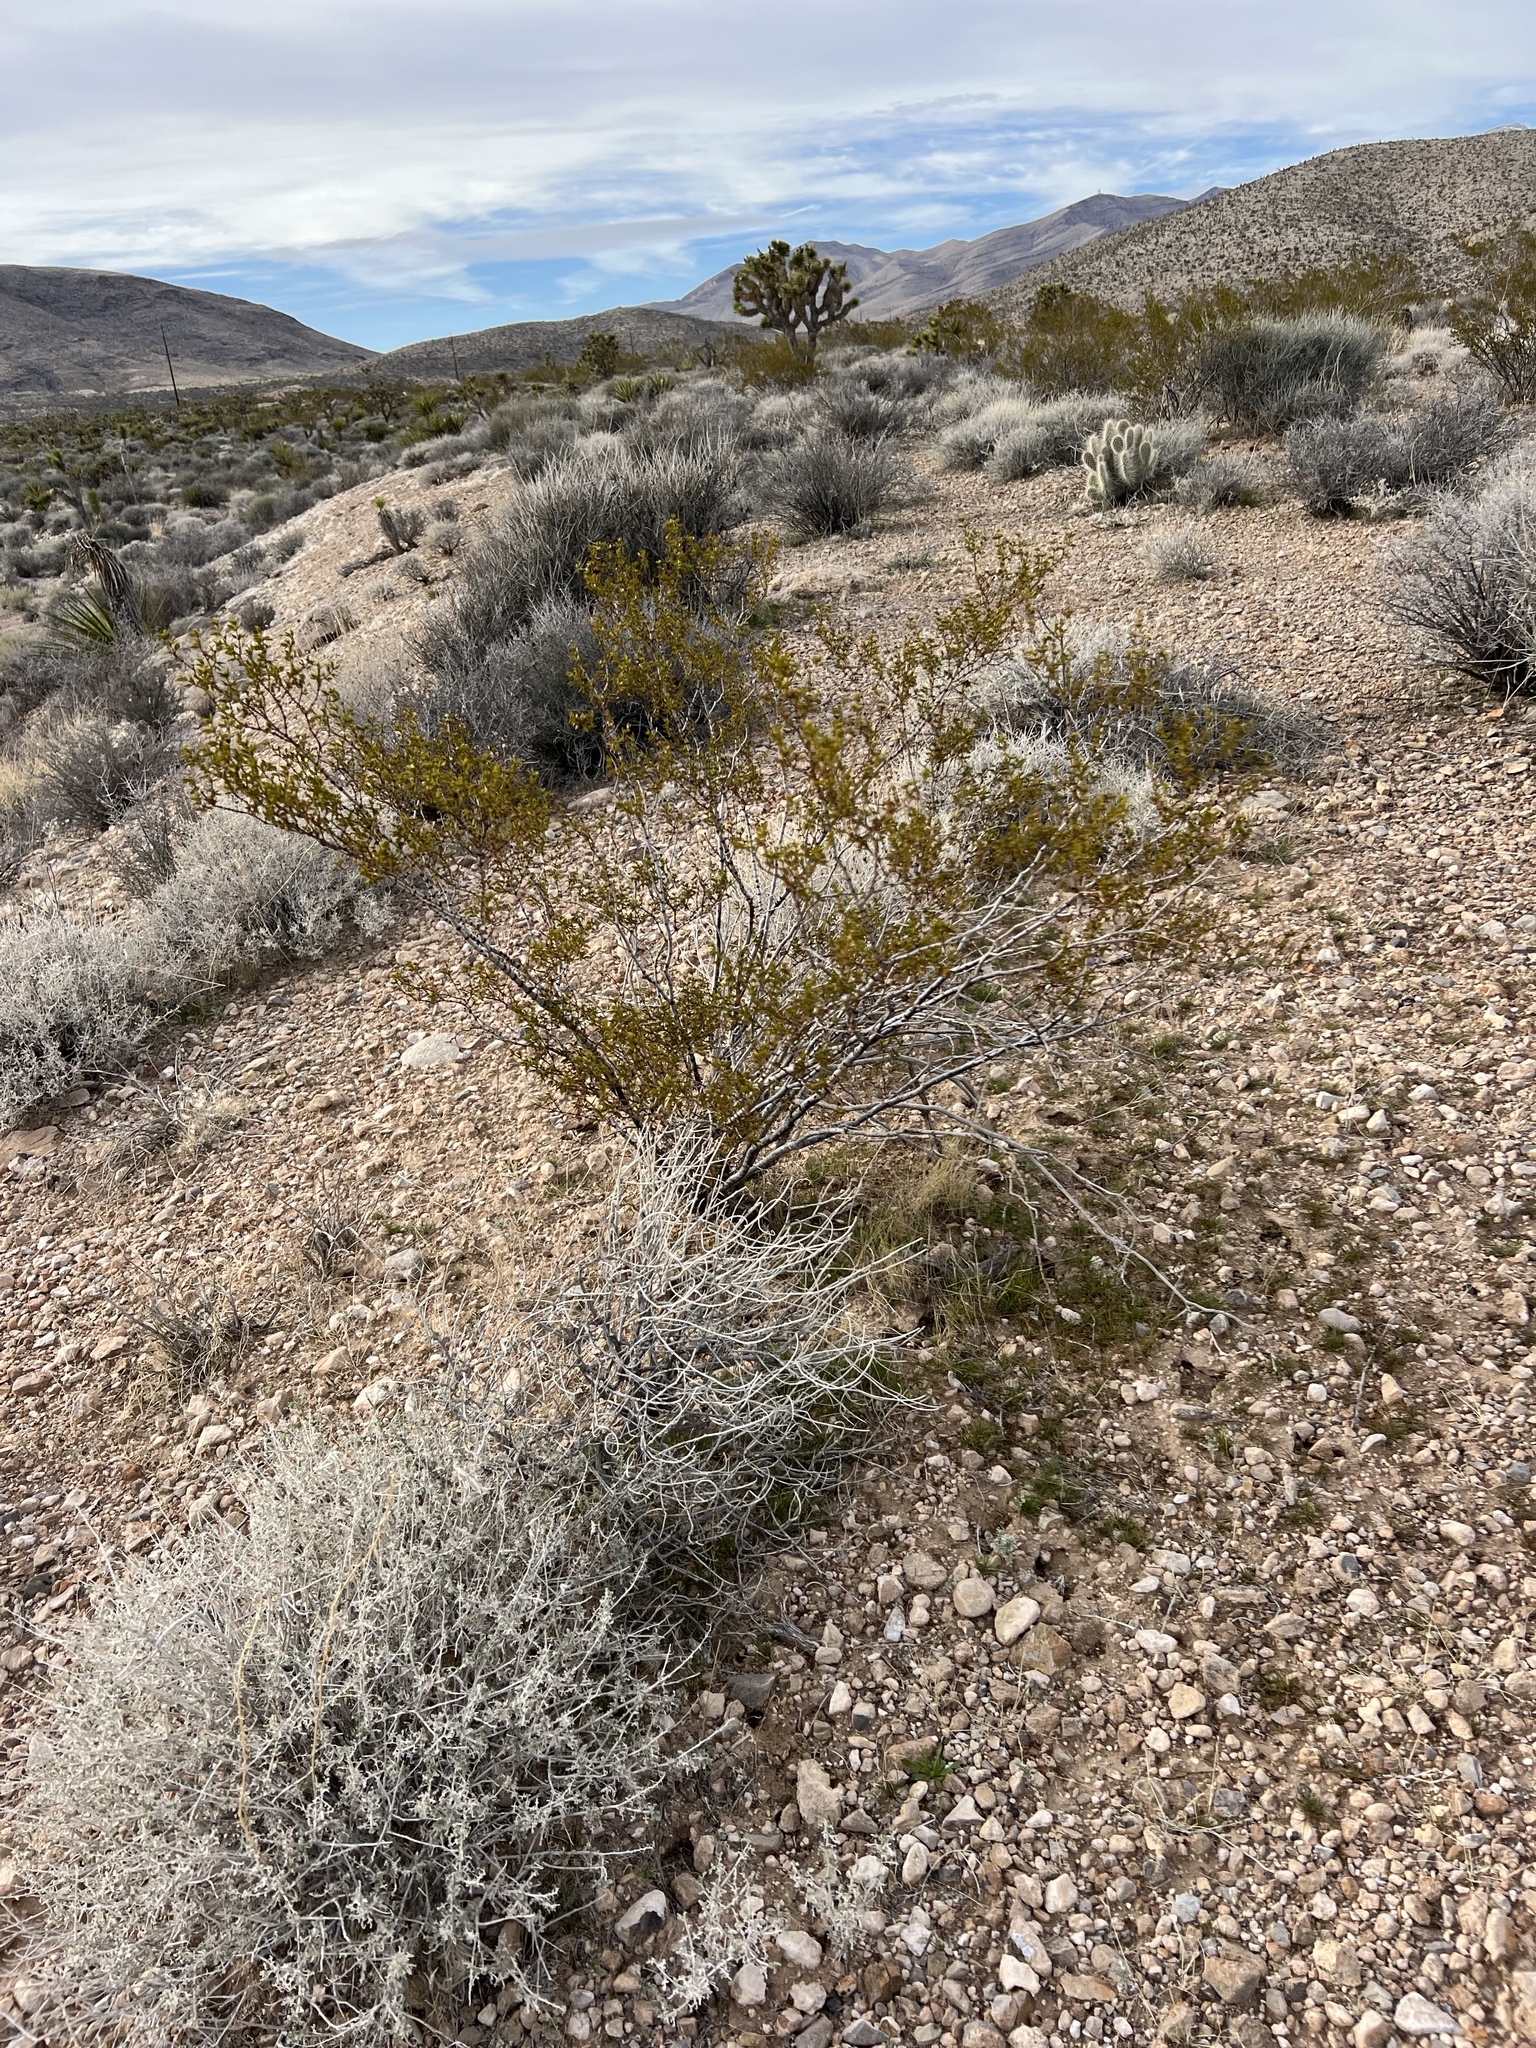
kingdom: Plantae
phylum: Tracheophyta
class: Magnoliopsida
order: Zygophyllales
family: Zygophyllaceae
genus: Larrea
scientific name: Larrea tridentata
